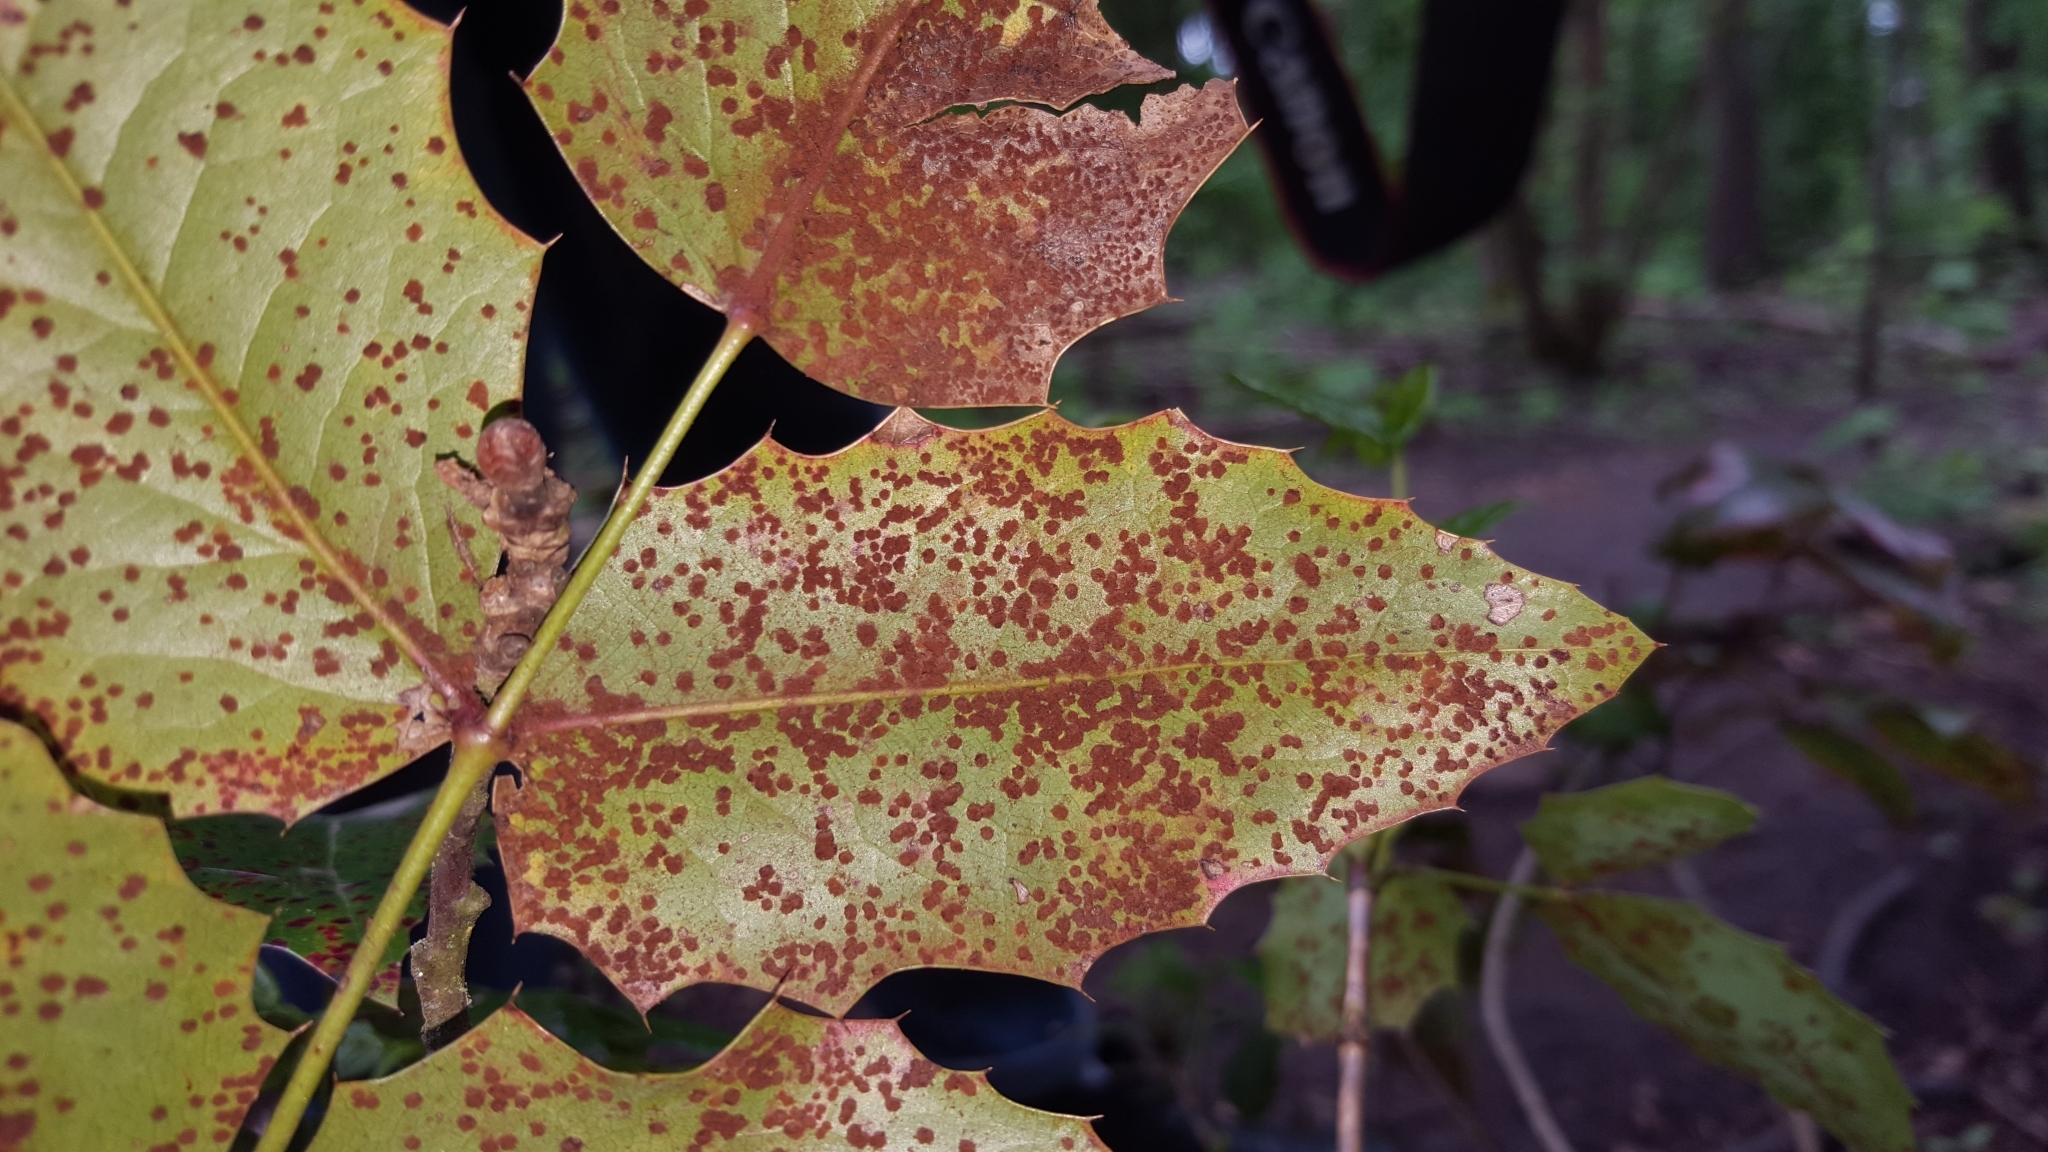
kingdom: Plantae
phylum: Tracheophyta
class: Magnoliopsida
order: Ranunculales
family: Berberidaceae
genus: Mahonia
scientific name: Mahonia aquifolium
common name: Oregon-grape
